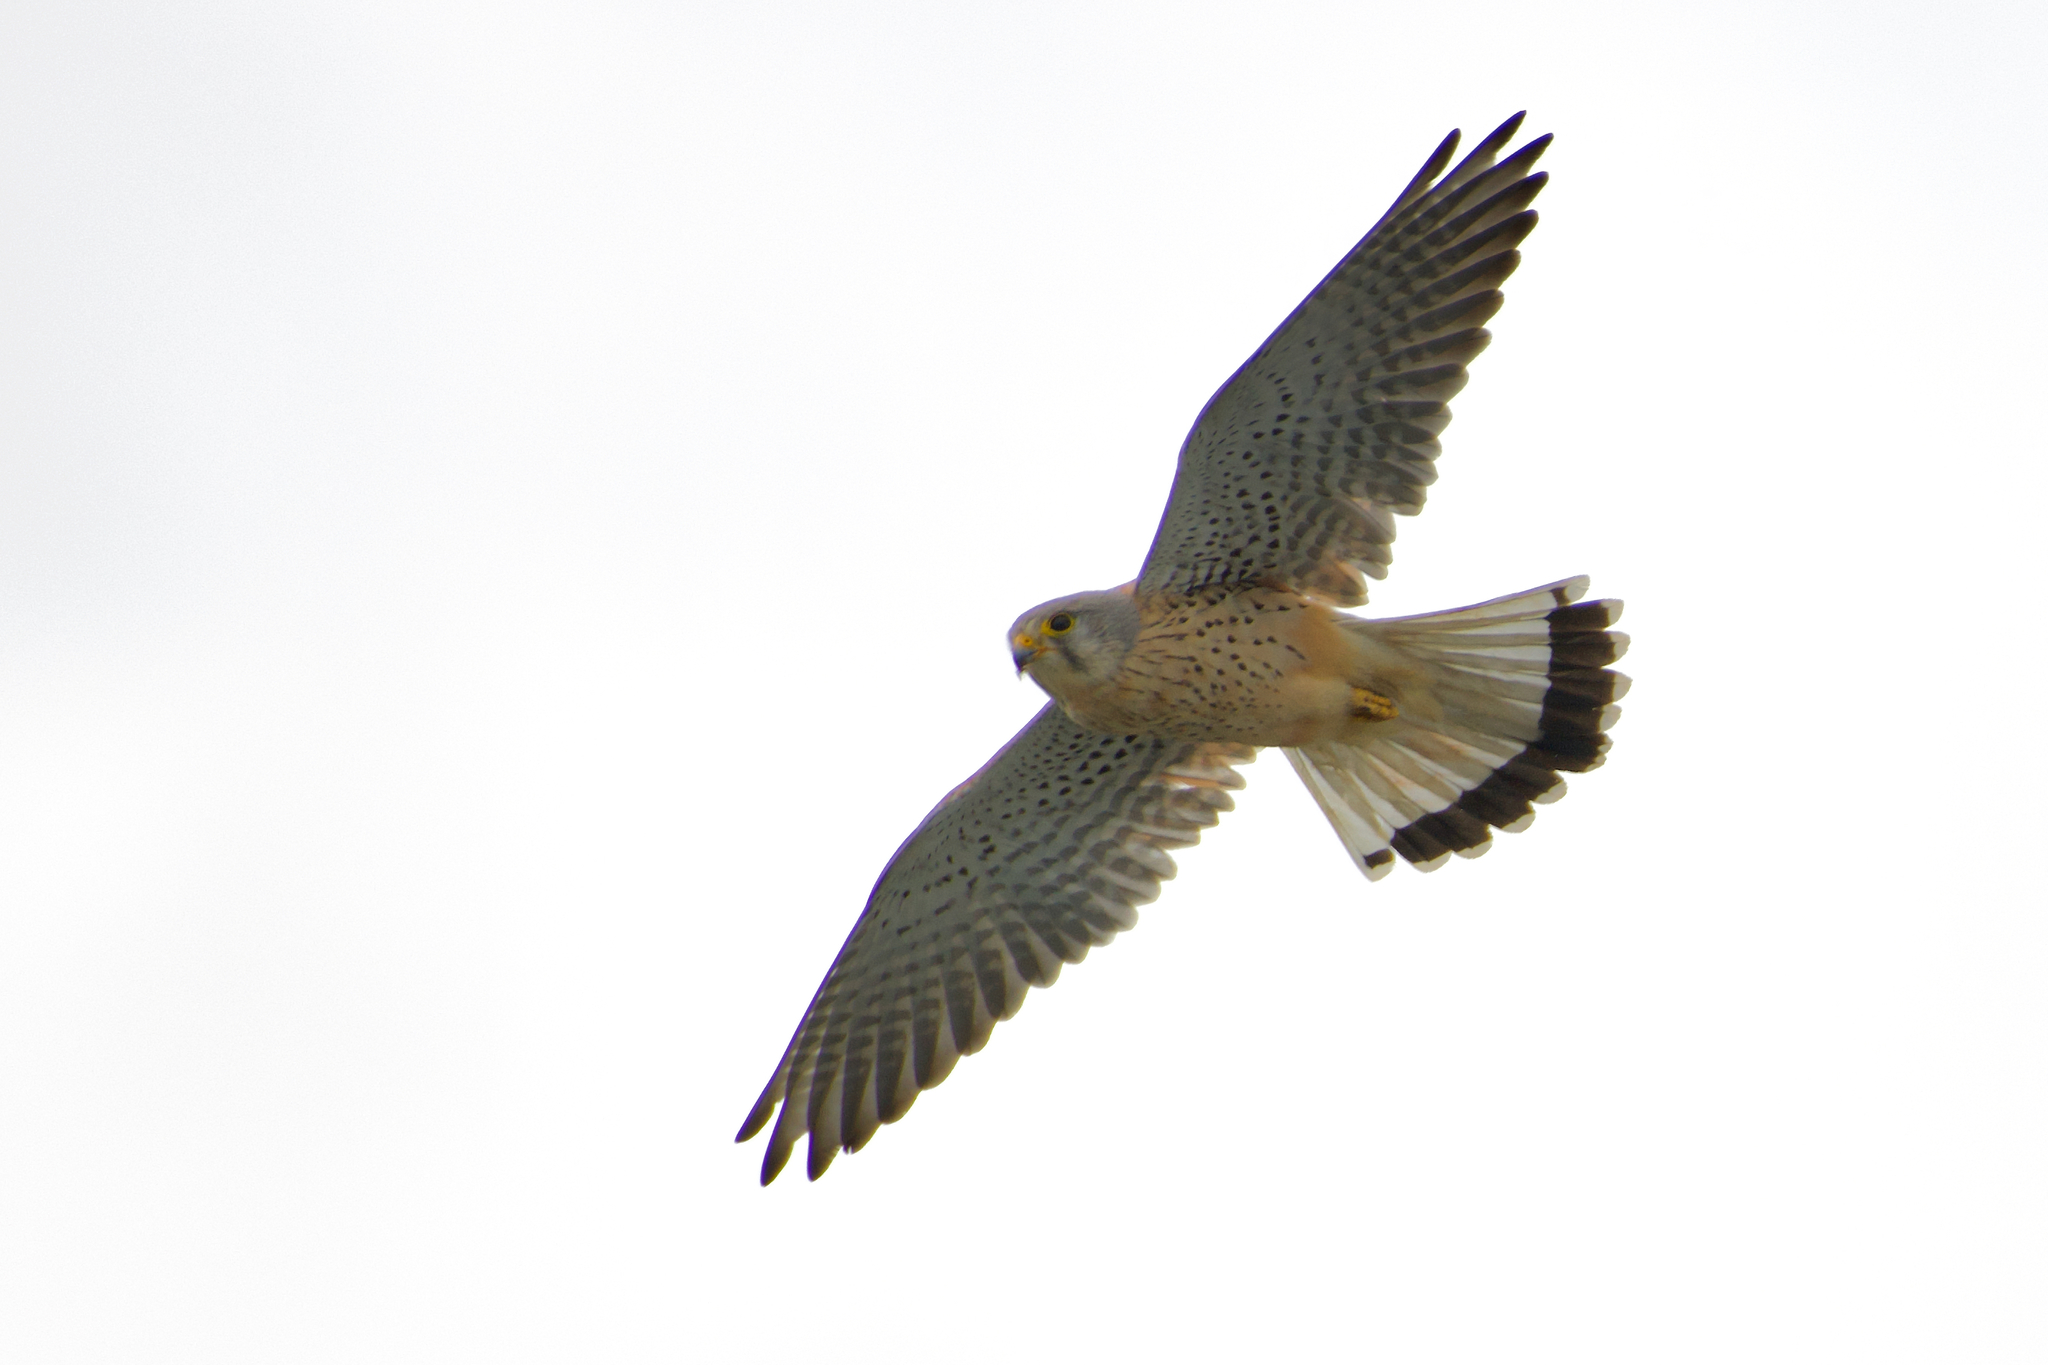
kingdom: Animalia
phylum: Chordata
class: Aves
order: Falconiformes
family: Falconidae
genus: Falco
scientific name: Falco tinnunculus
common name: Common kestrel
